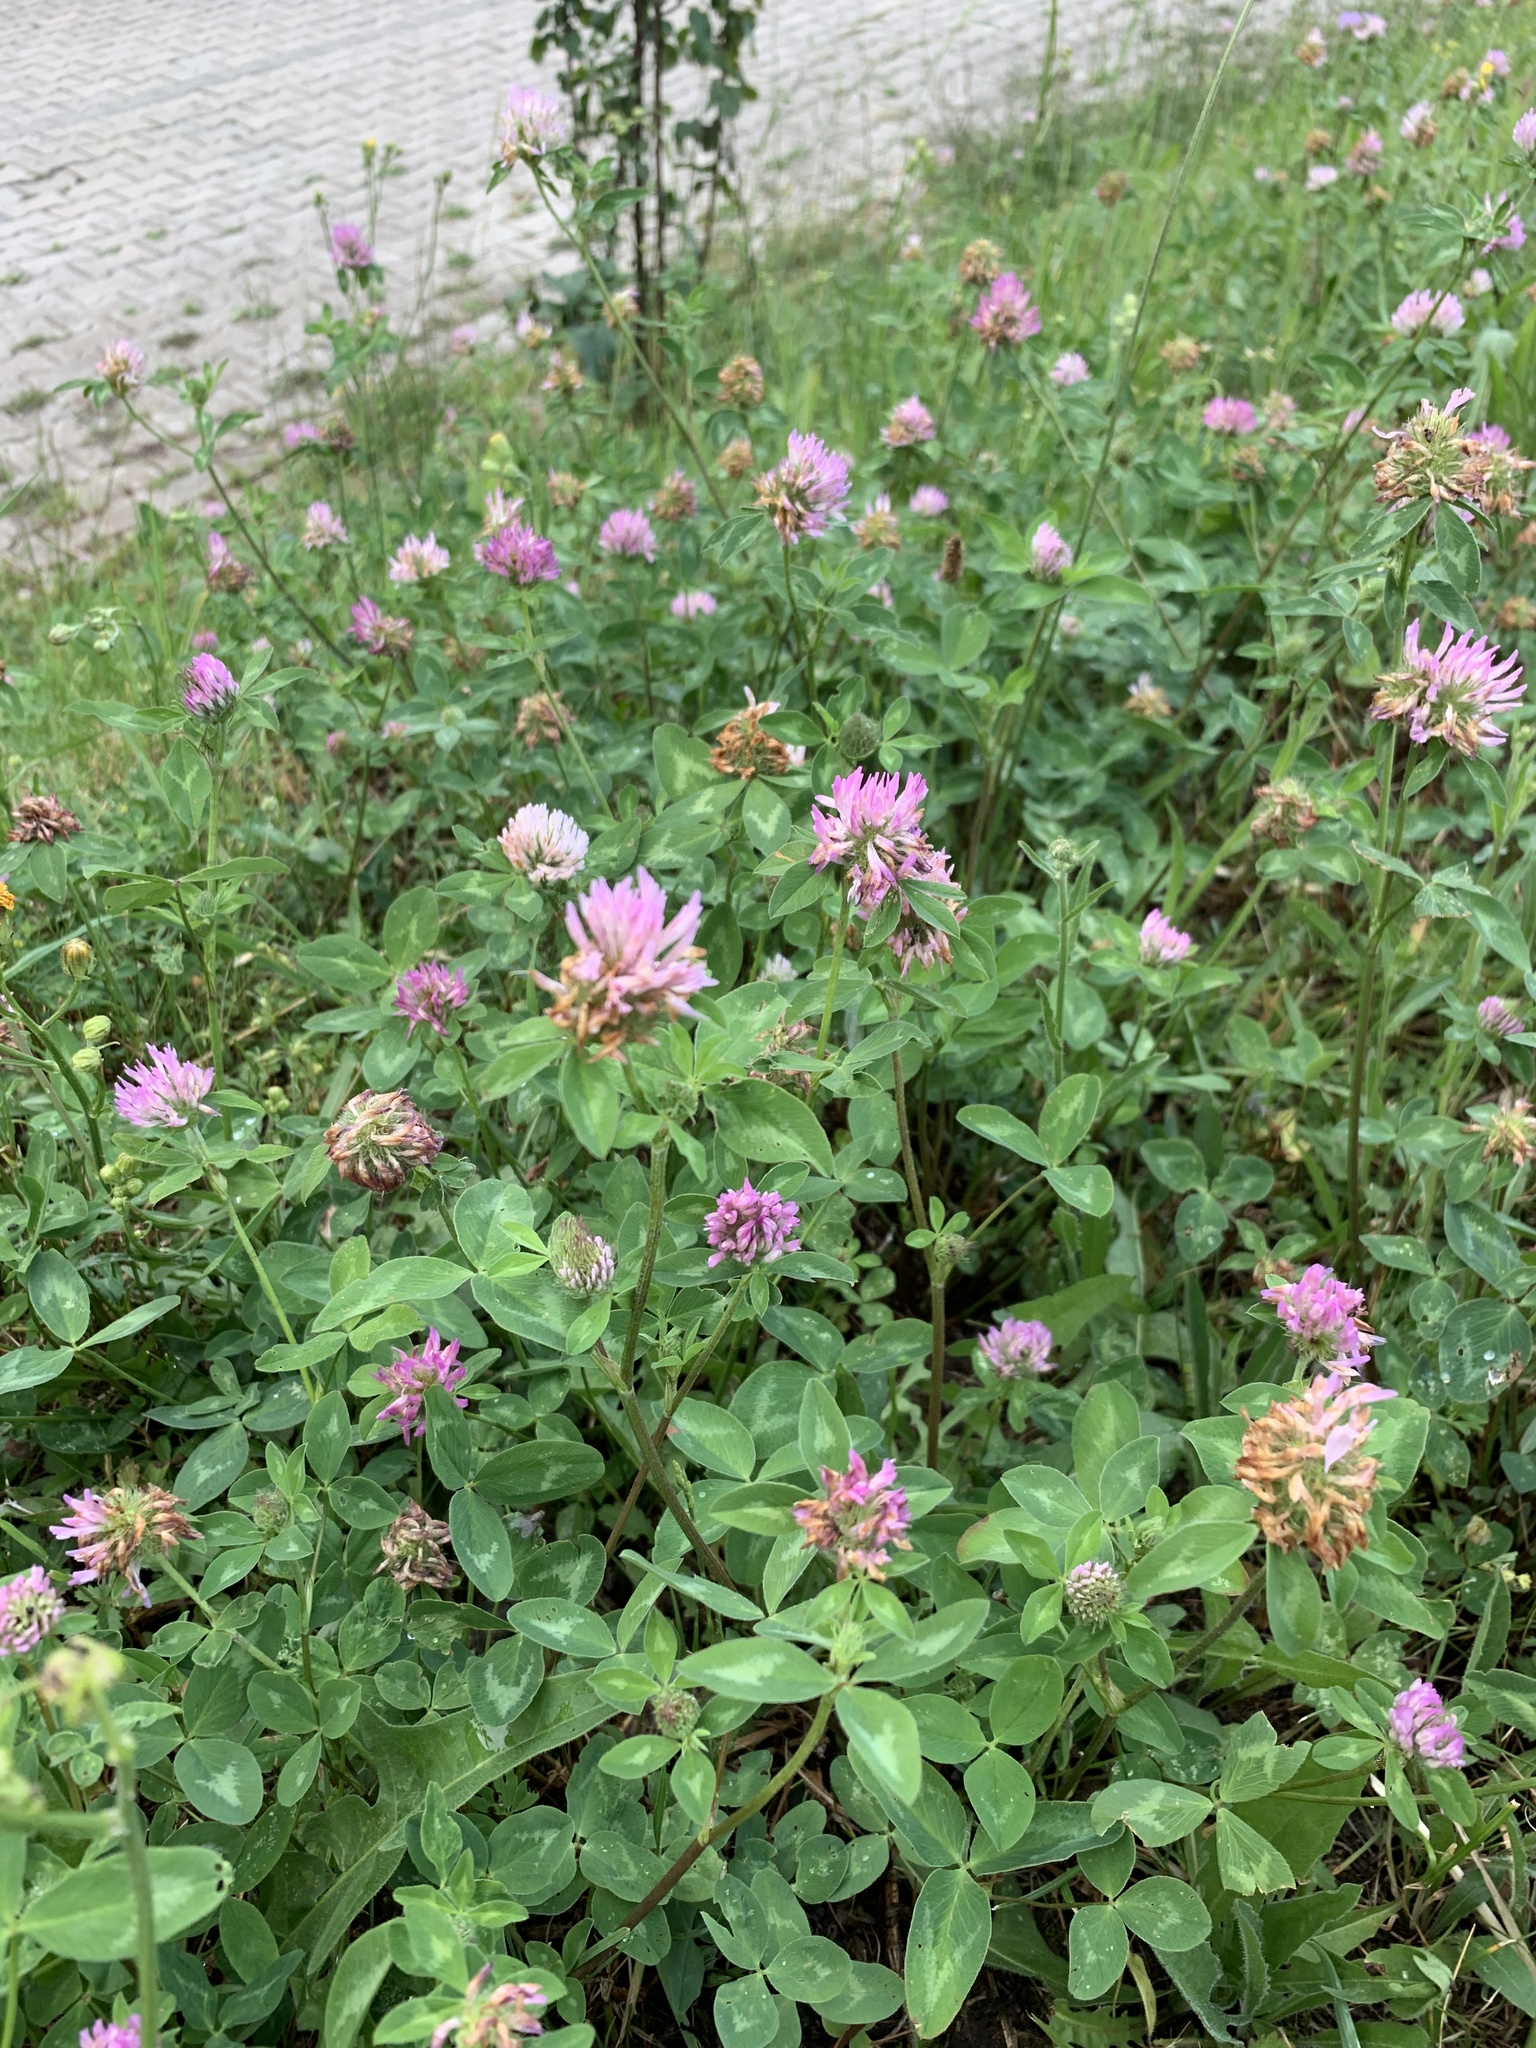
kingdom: Plantae
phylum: Tracheophyta
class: Magnoliopsida
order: Fabales
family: Fabaceae
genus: Trifolium
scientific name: Trifolium pratense
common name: Red clover
